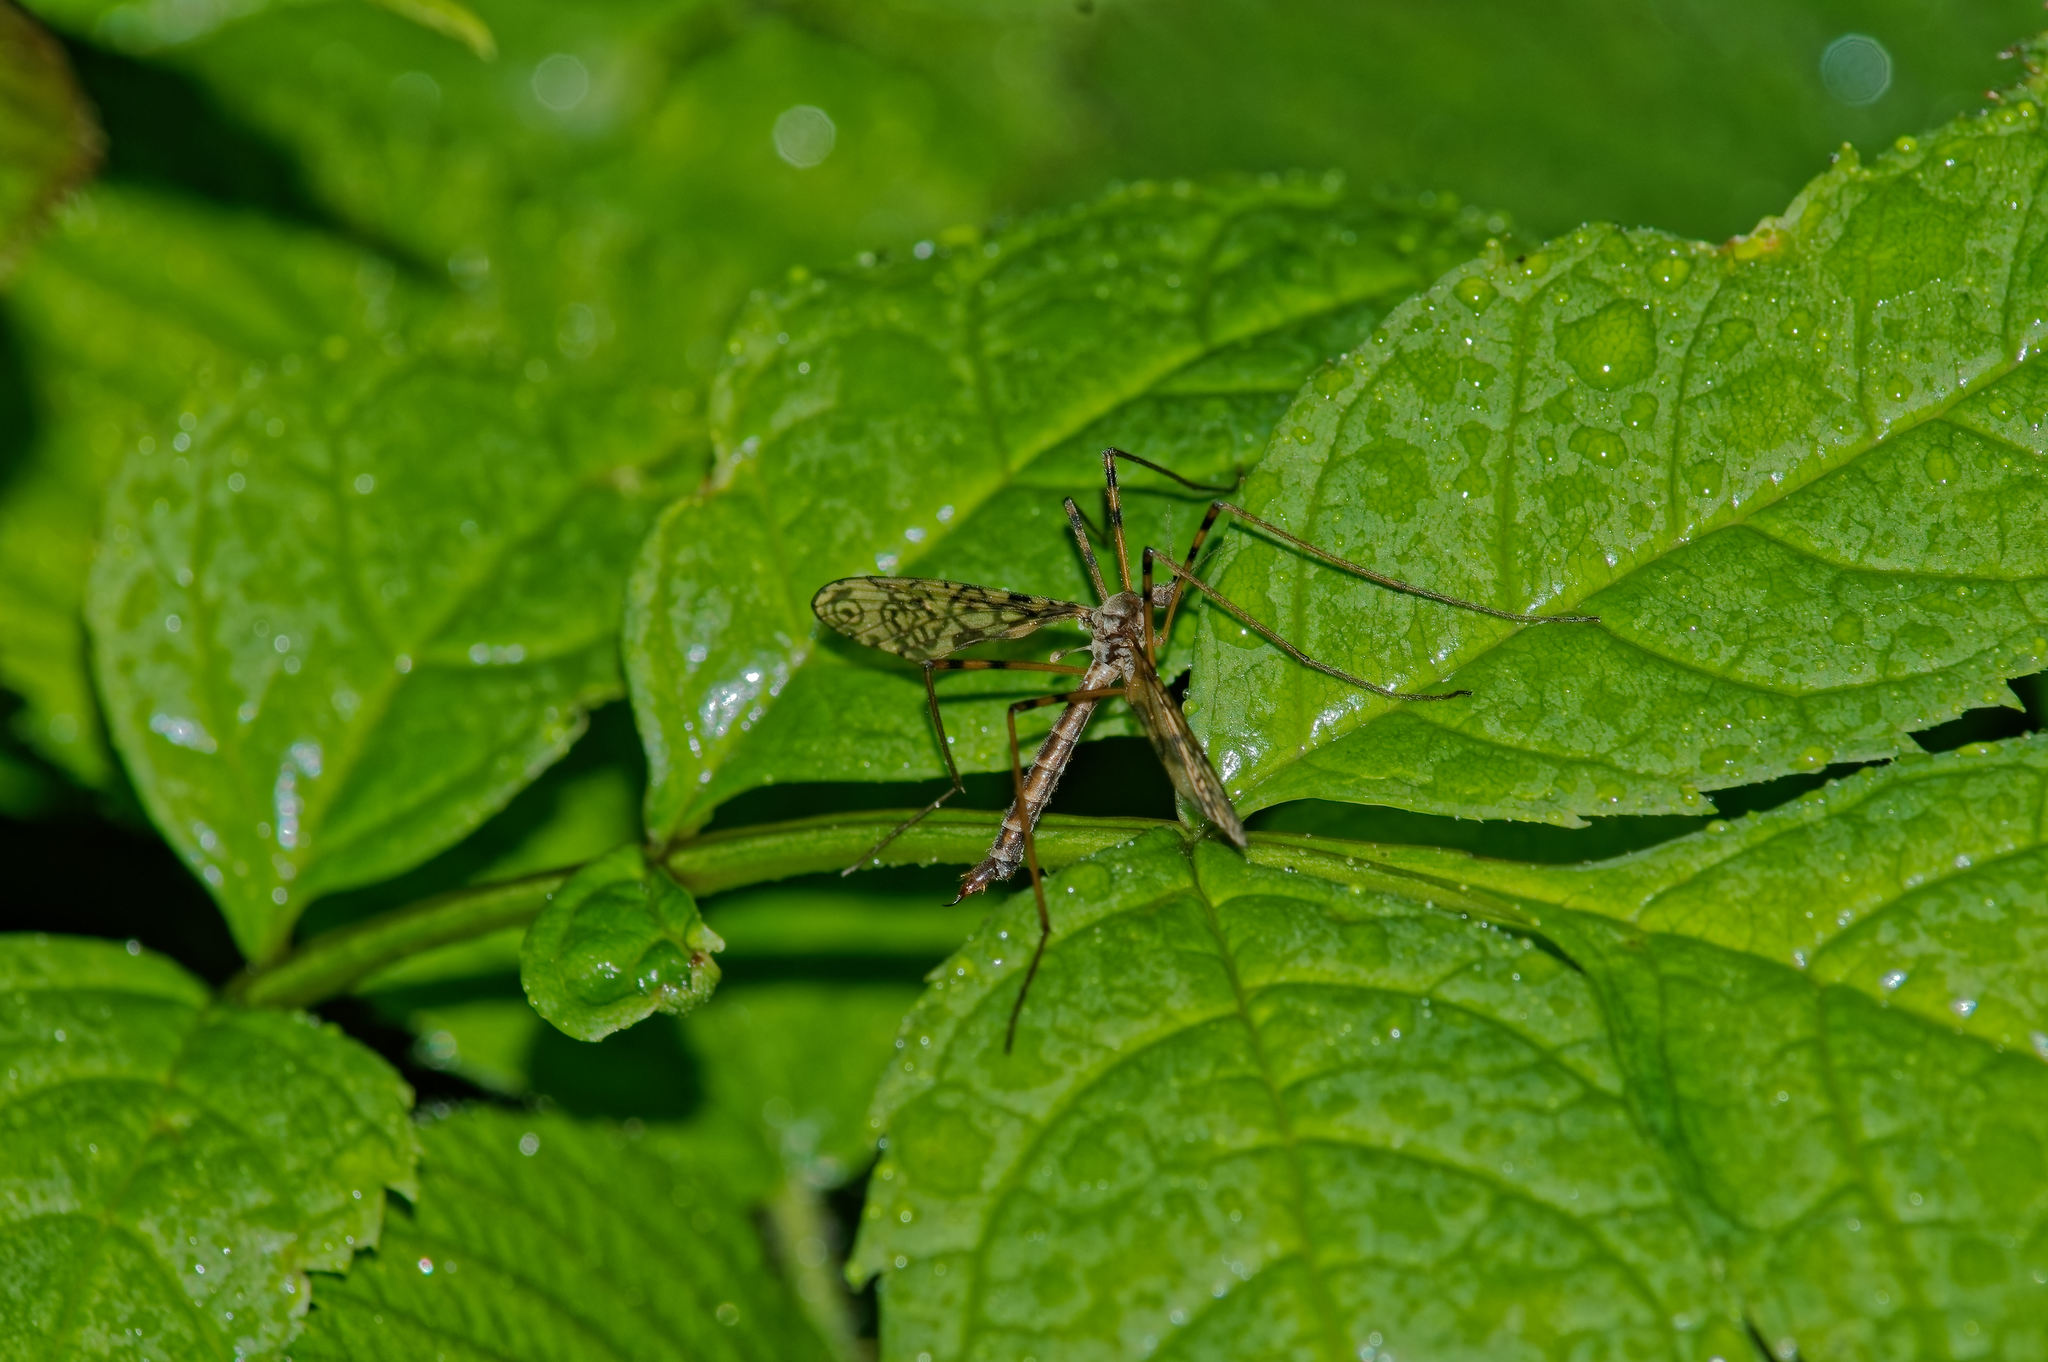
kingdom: Animalia
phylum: Arthropoda
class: Insecta
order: Diptera
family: Limoniidae
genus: Epiphragma
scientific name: Epiphragma ocellare
